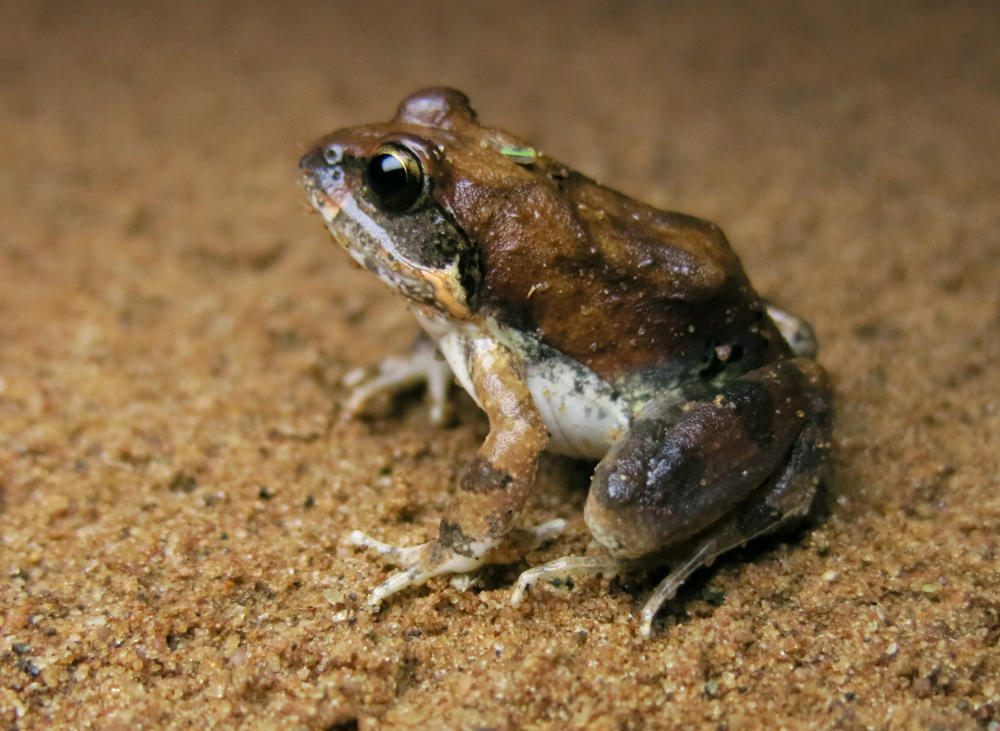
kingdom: Animalia
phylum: Chordata
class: Amphibia
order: Anura
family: Pyxicephalidae
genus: Tomopterna
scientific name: Tomopterna natalensis
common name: Natal sand frog
